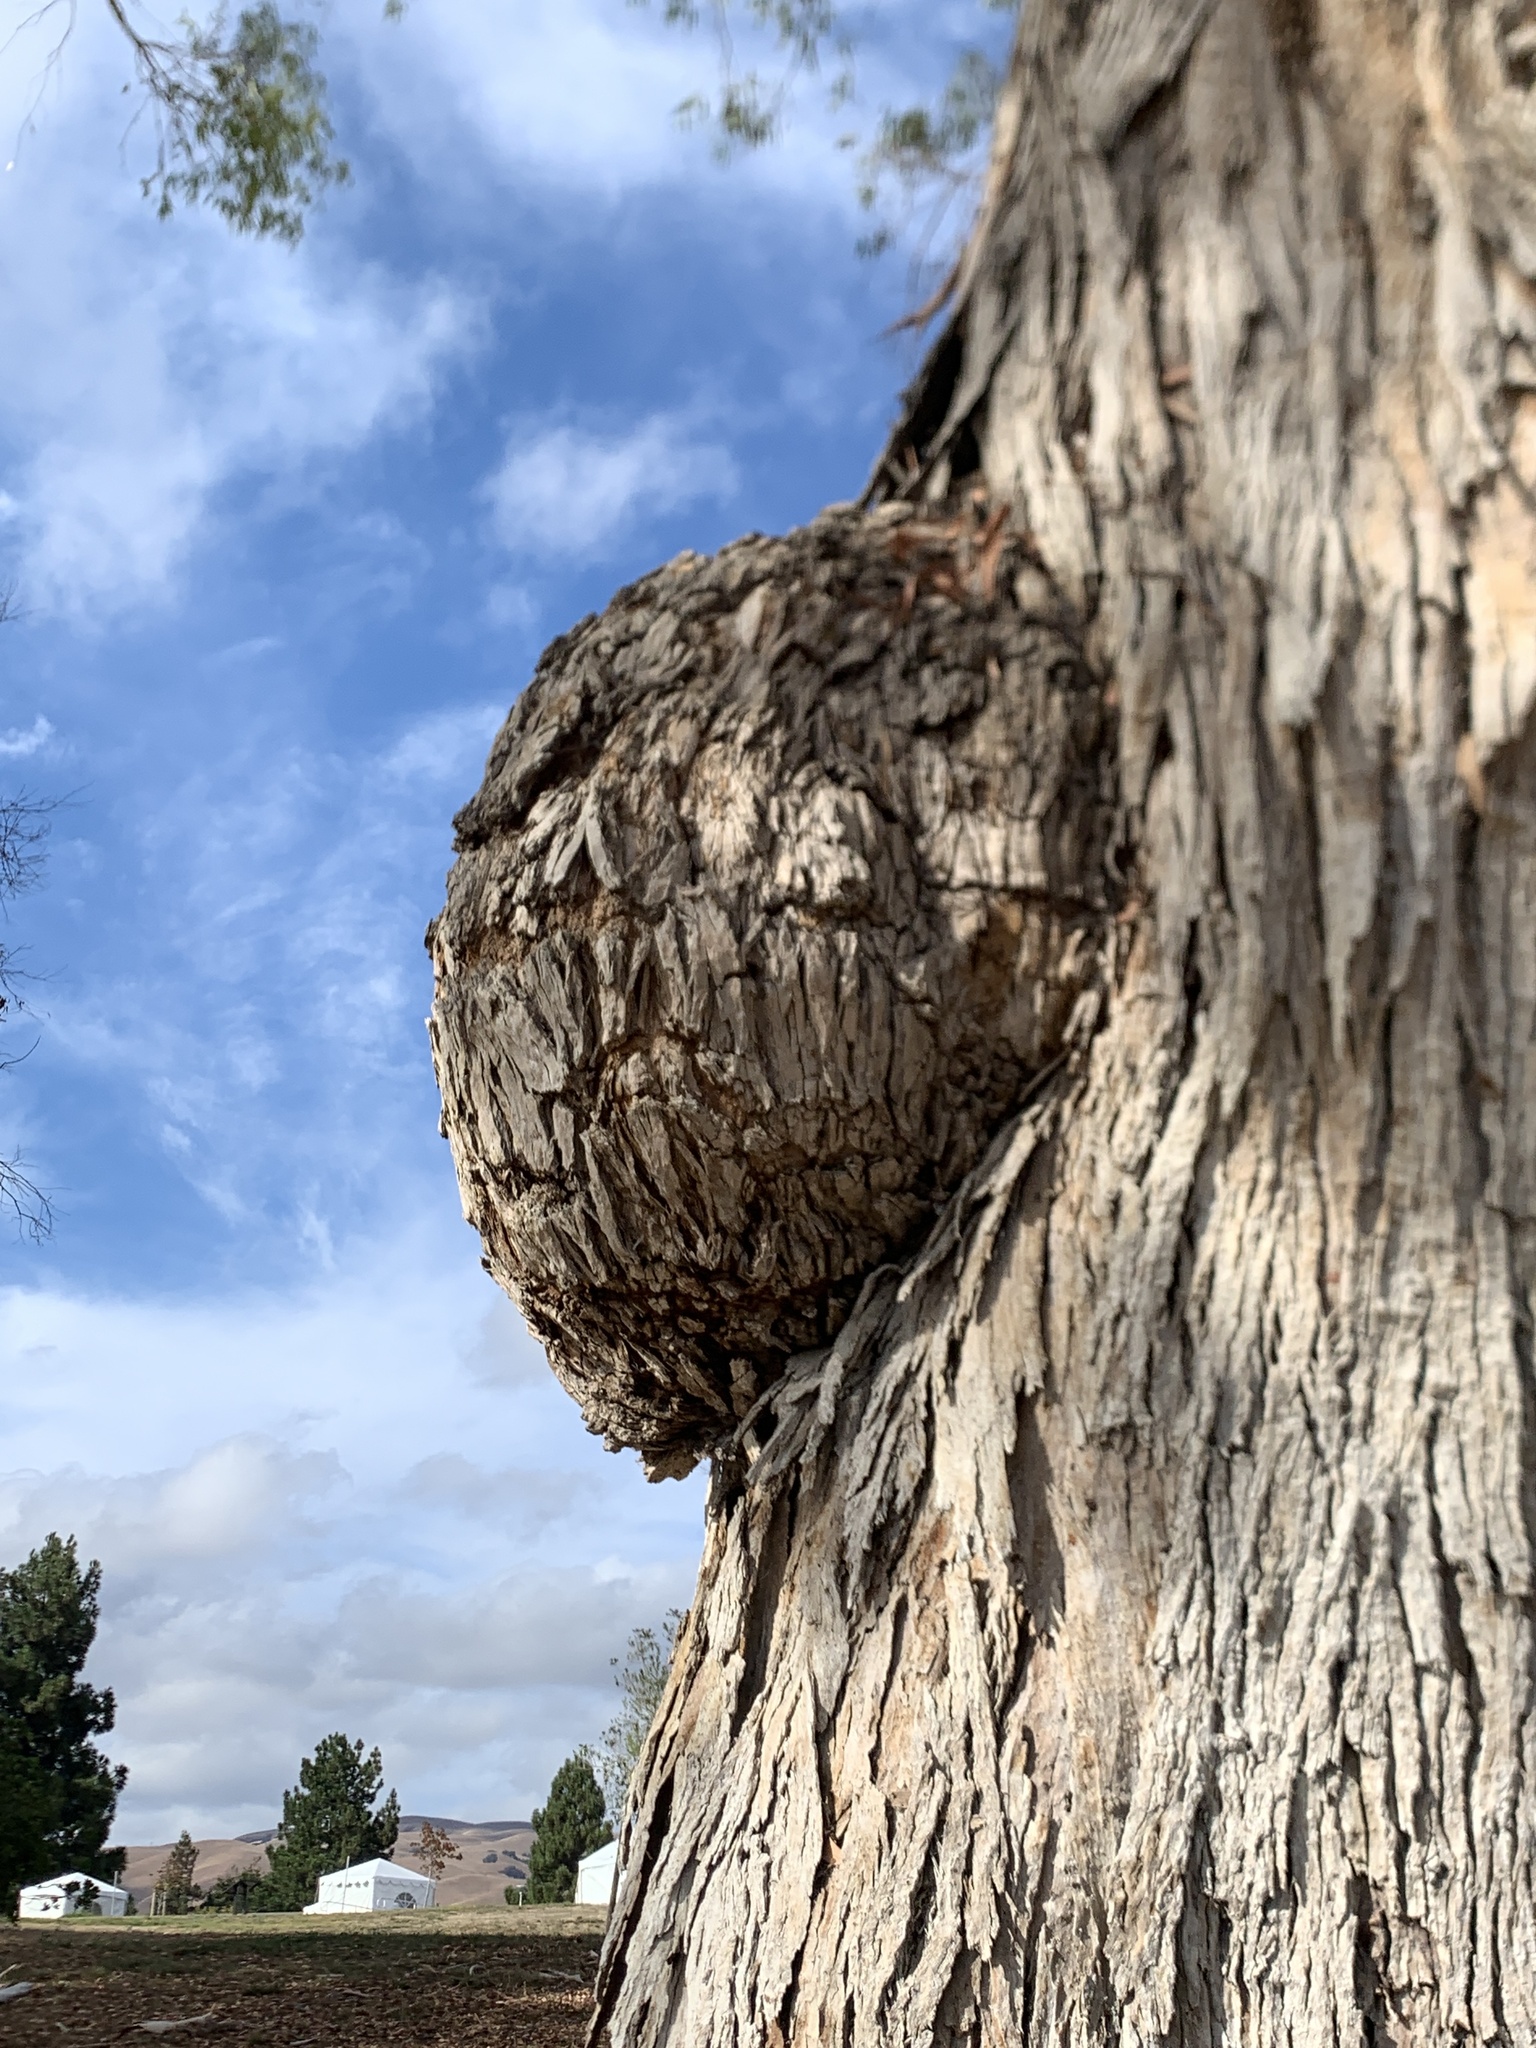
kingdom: Bacteria
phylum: Proteobacteria
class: Alphaproteobacteria
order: Rhizobiales
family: Rhizobiaceae
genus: Rhizobium
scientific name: Rhizobium Agrobacterium radiobacter
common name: Bacterial crown gall
